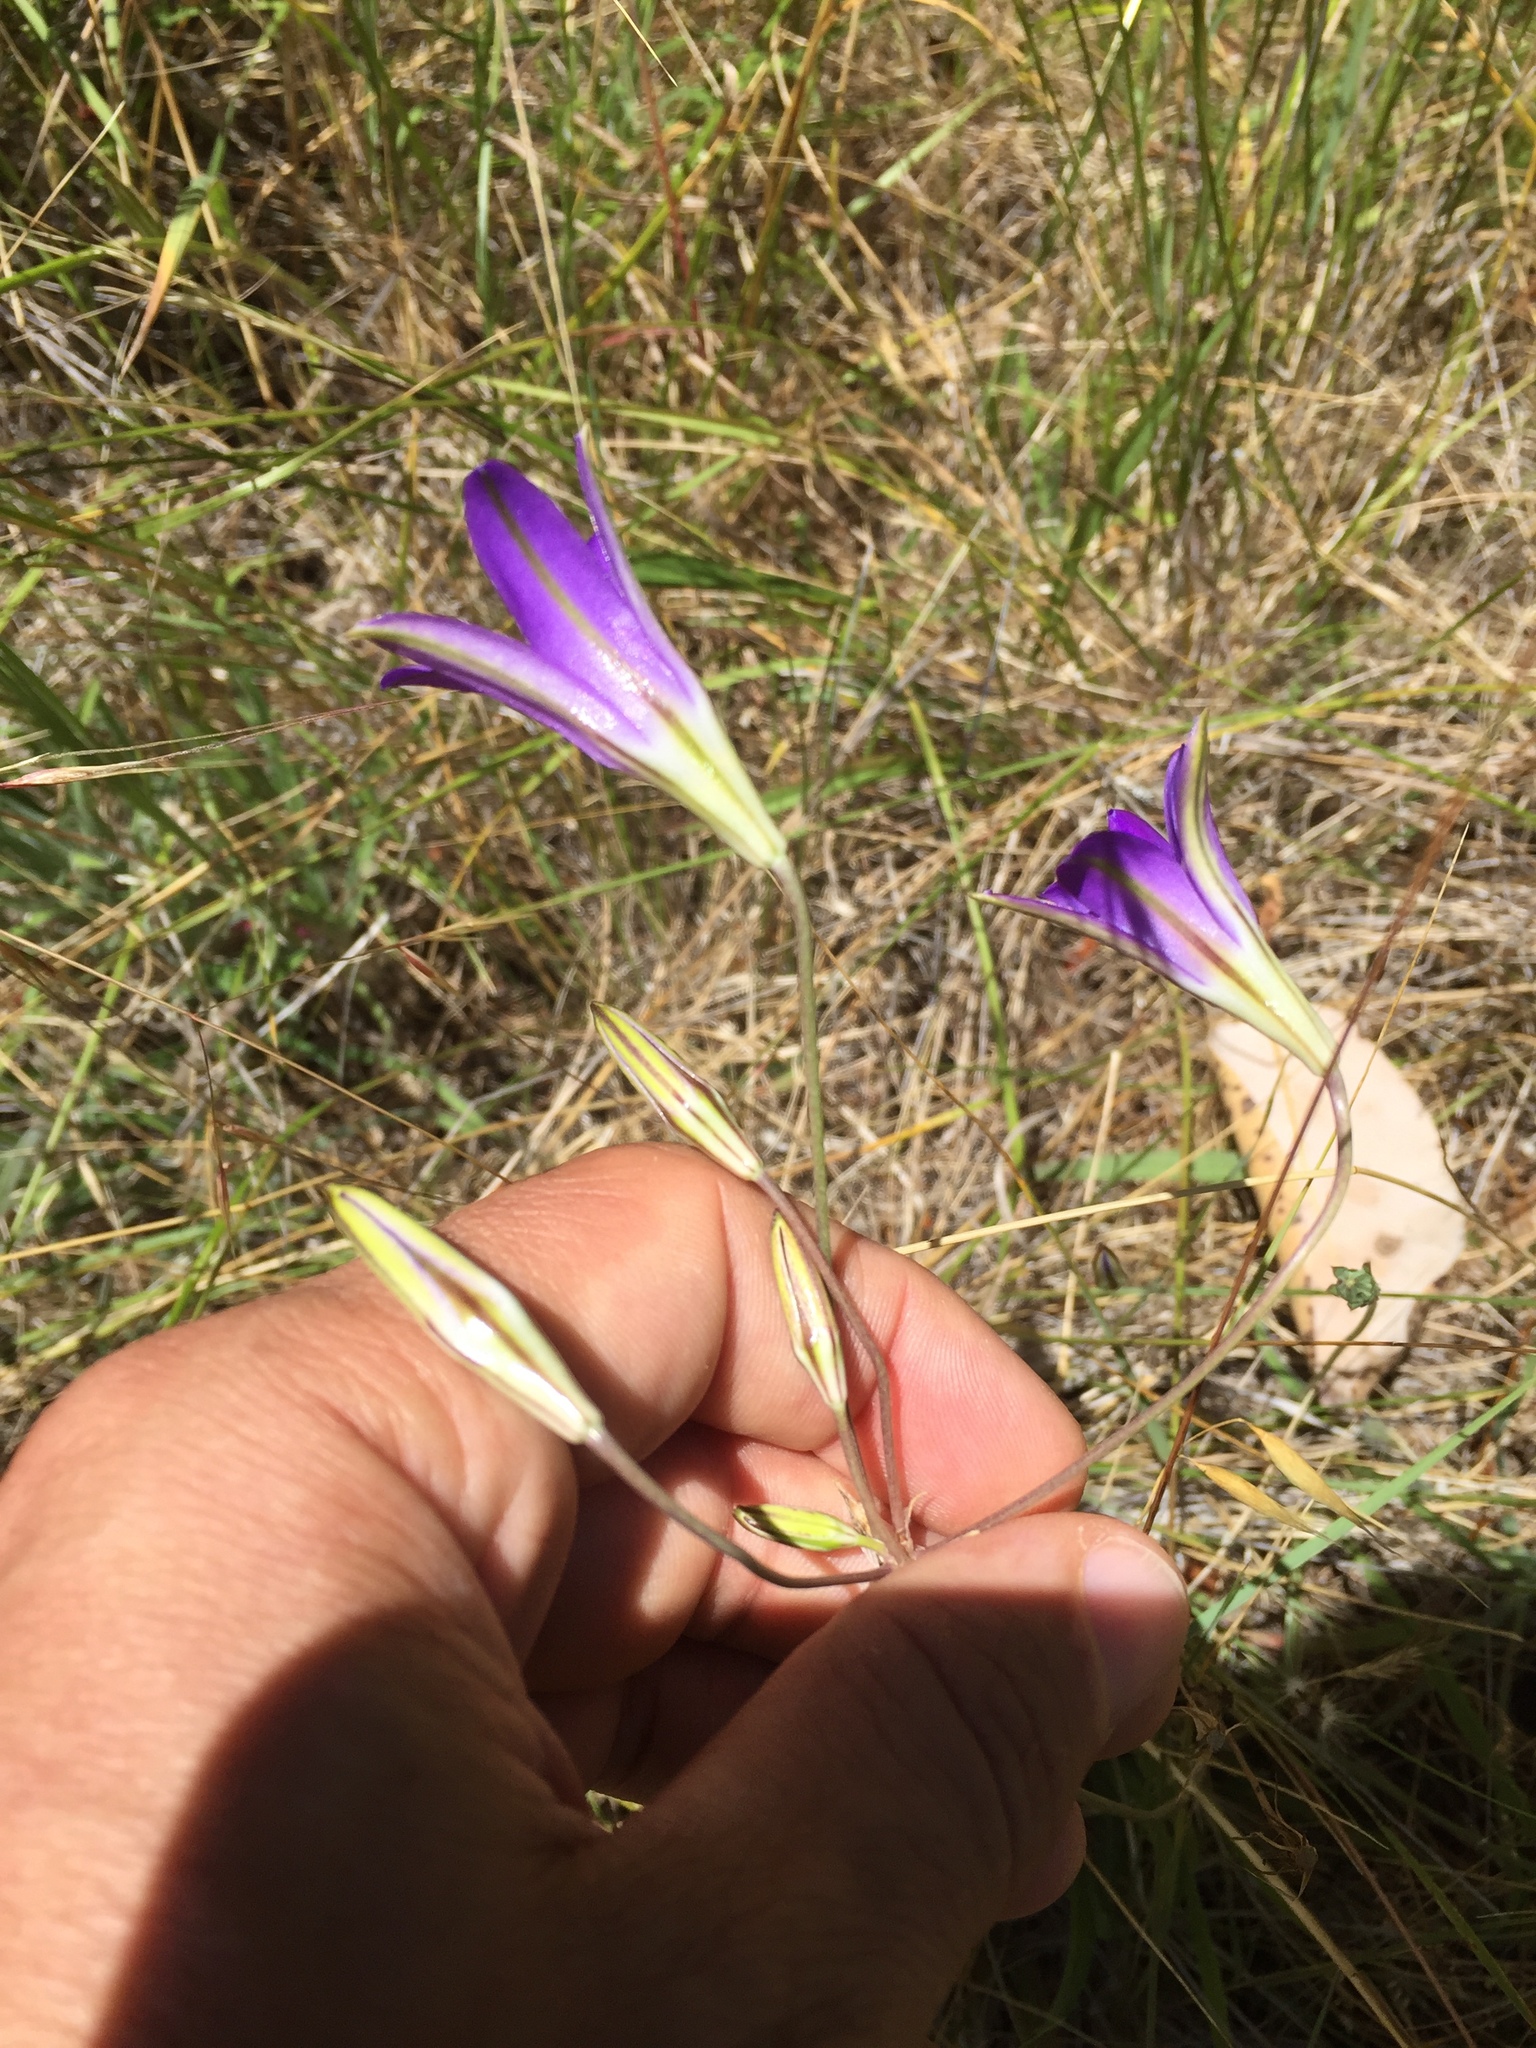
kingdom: Plantae
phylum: Tracheophyta
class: Liliopsida
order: Asparagales
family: Asparagaceae
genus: Brodiaea
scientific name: Brodiaea elegans
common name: Elegant cluster-lily
